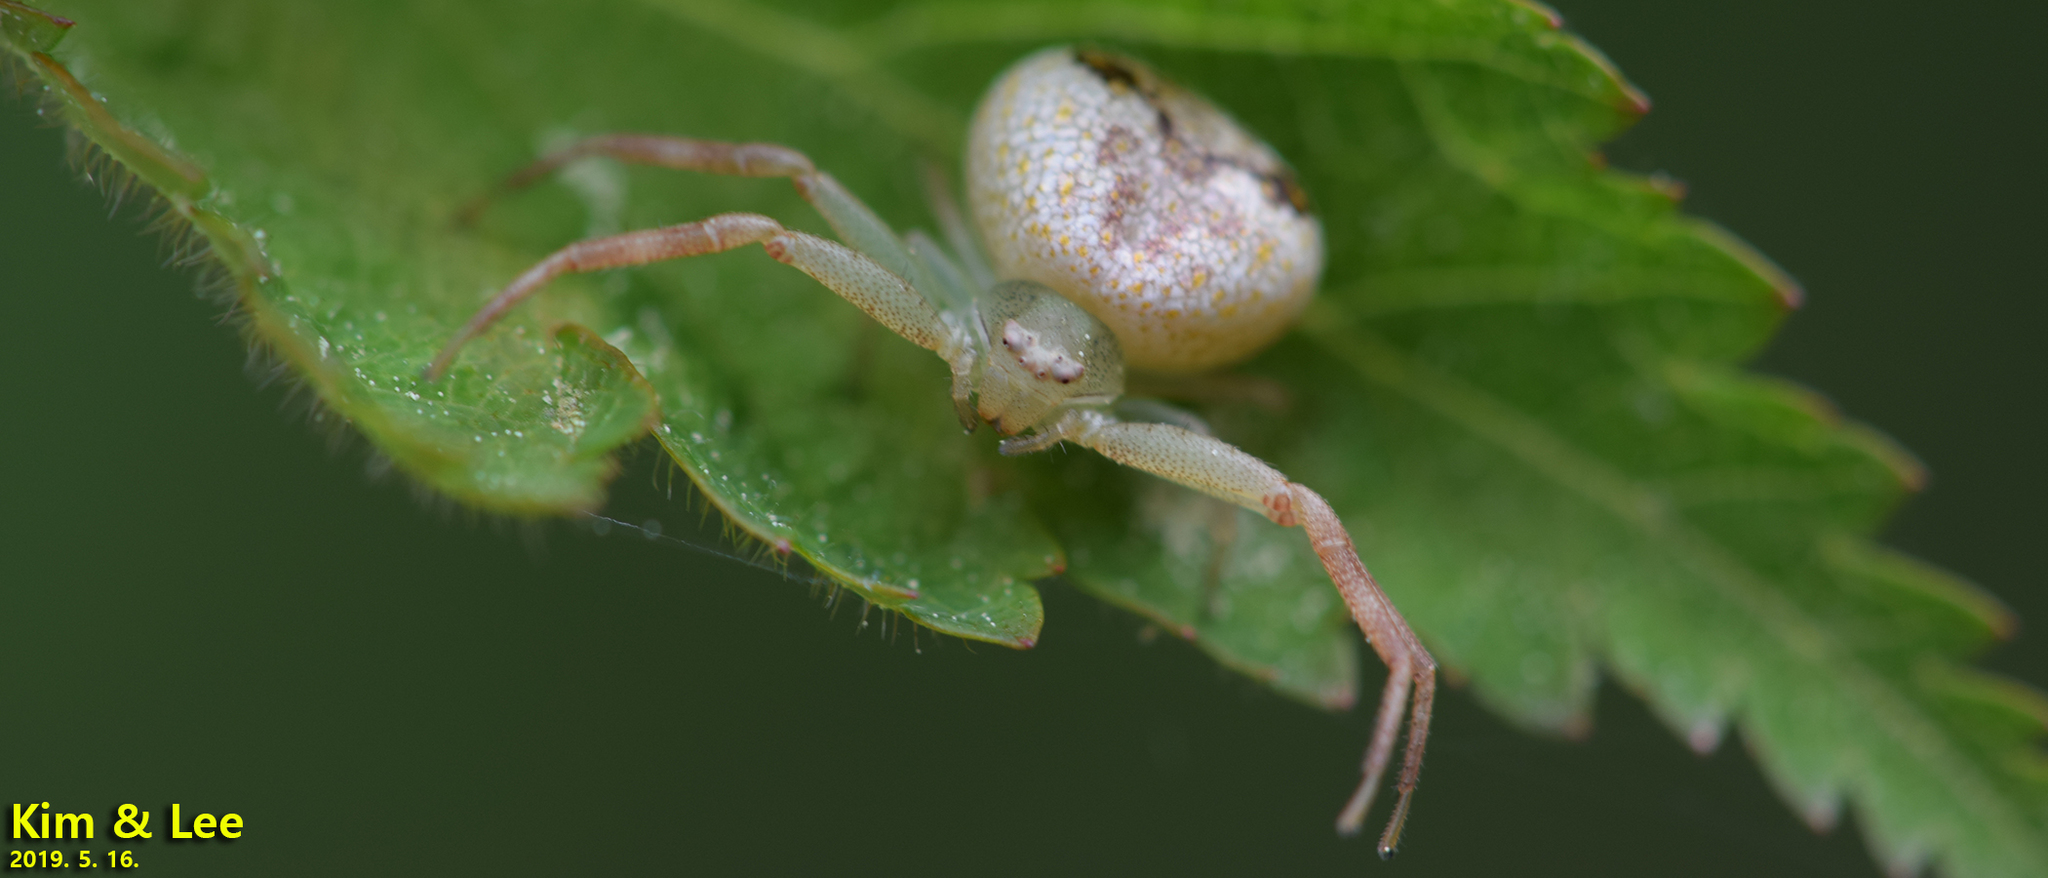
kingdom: Animalia
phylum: Arthropoda
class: Arachnida
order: Araneae
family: Thomisidae
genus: Ebrechtella
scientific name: Ebrechtella tricuspidata
